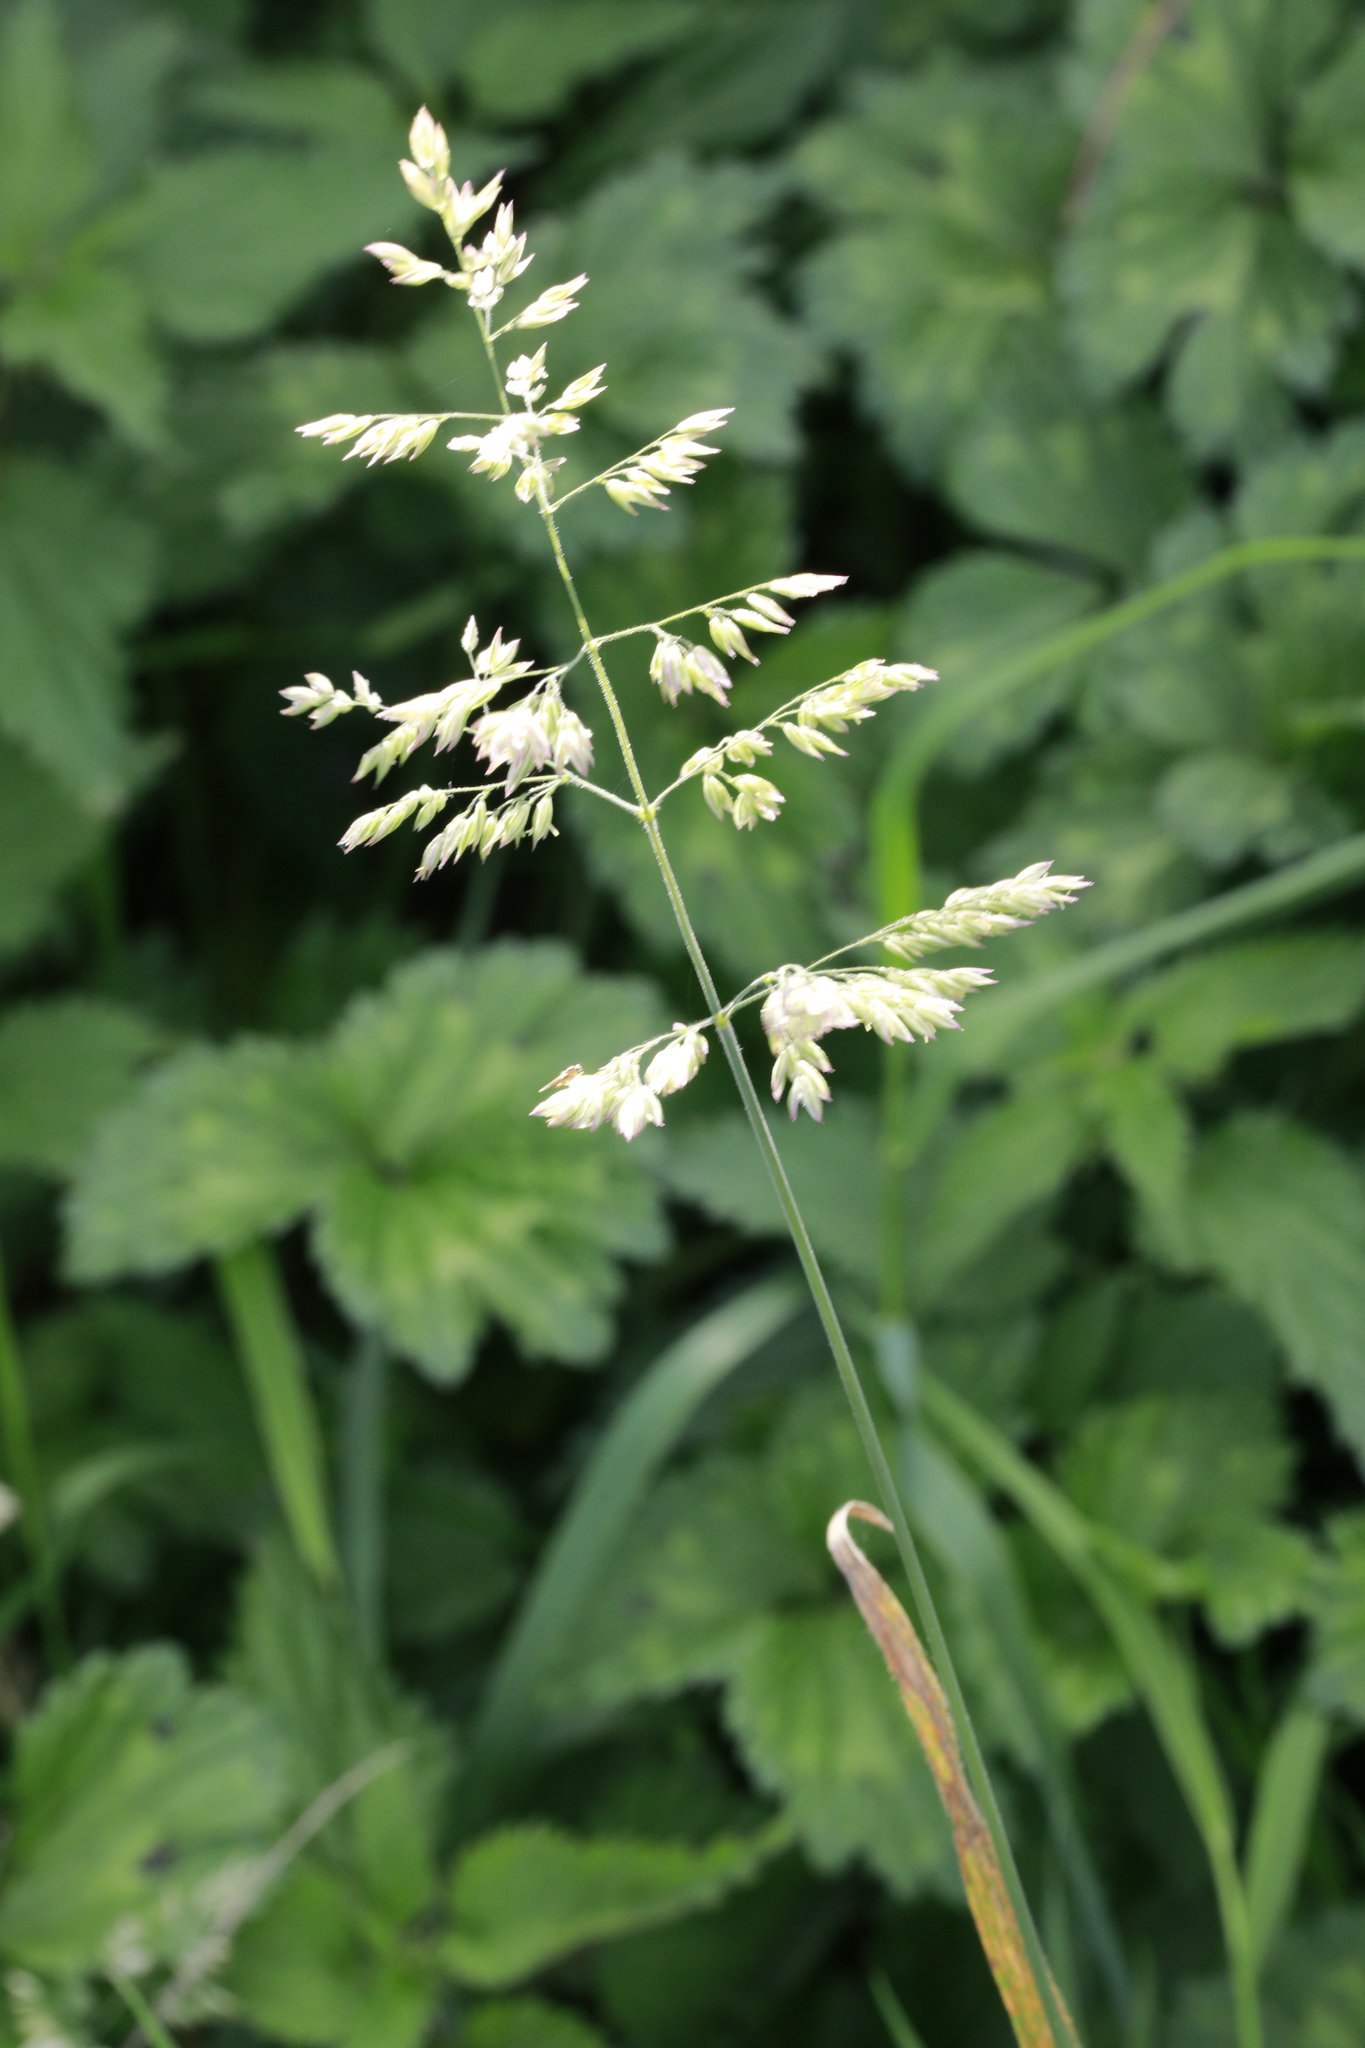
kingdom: Plantae
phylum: Tracheophyta
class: Liliopsida
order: Poales
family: Poaceae
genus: Holcus
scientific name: Holcus lanatus
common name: Yorkshire-fog
